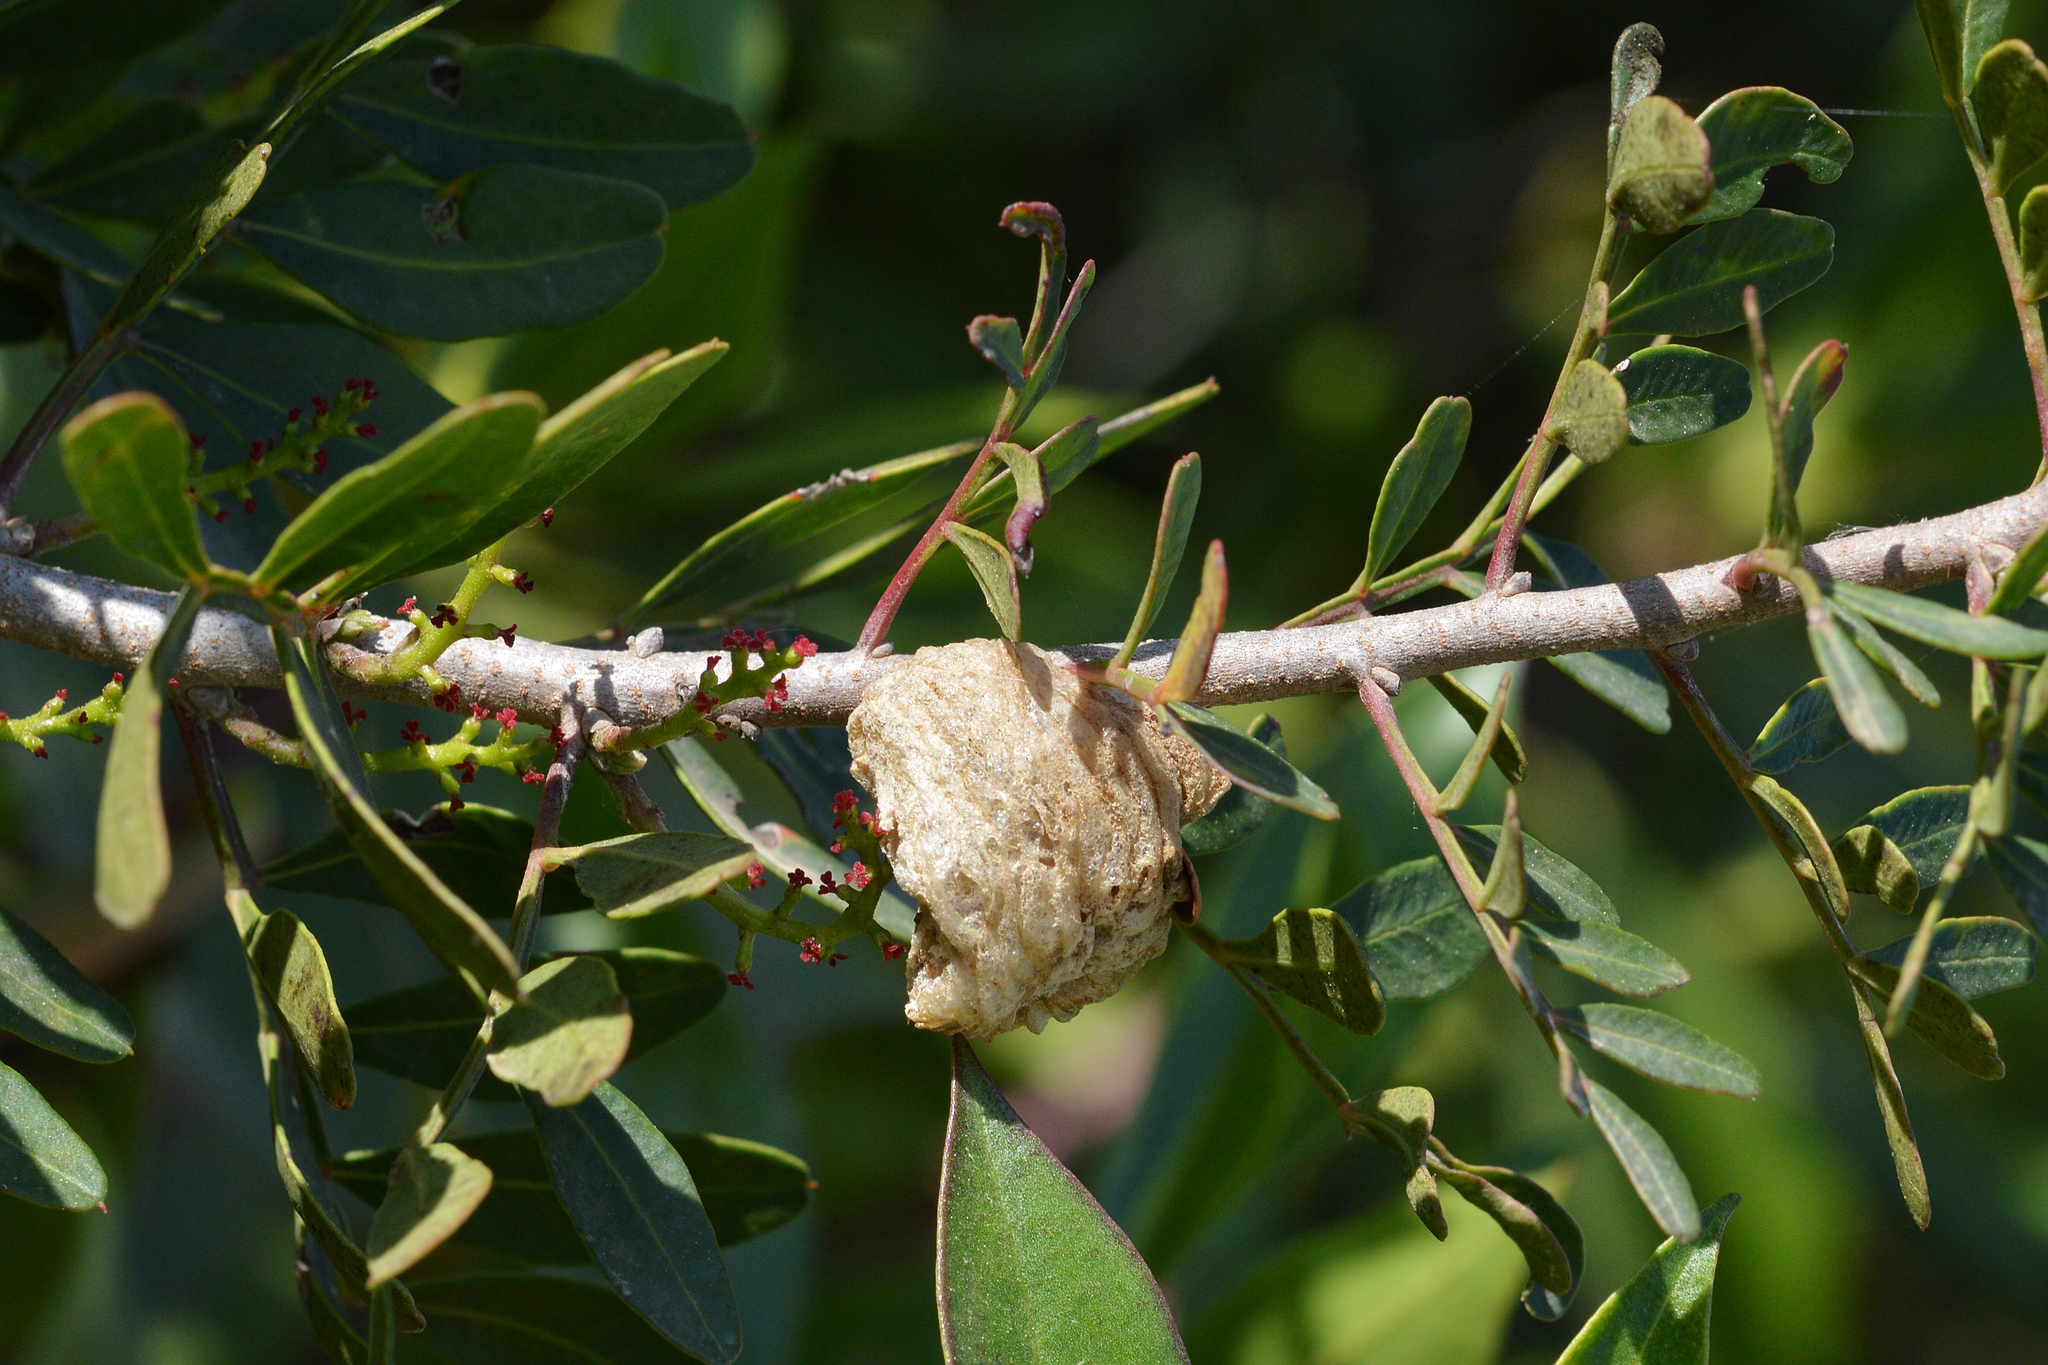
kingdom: Plantae
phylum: Tracheophyta
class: Magnoliopsida
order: Sapindales
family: Anacardiaceae
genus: Pistacia
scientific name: Pistacia lentiscus
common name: Lentisk
